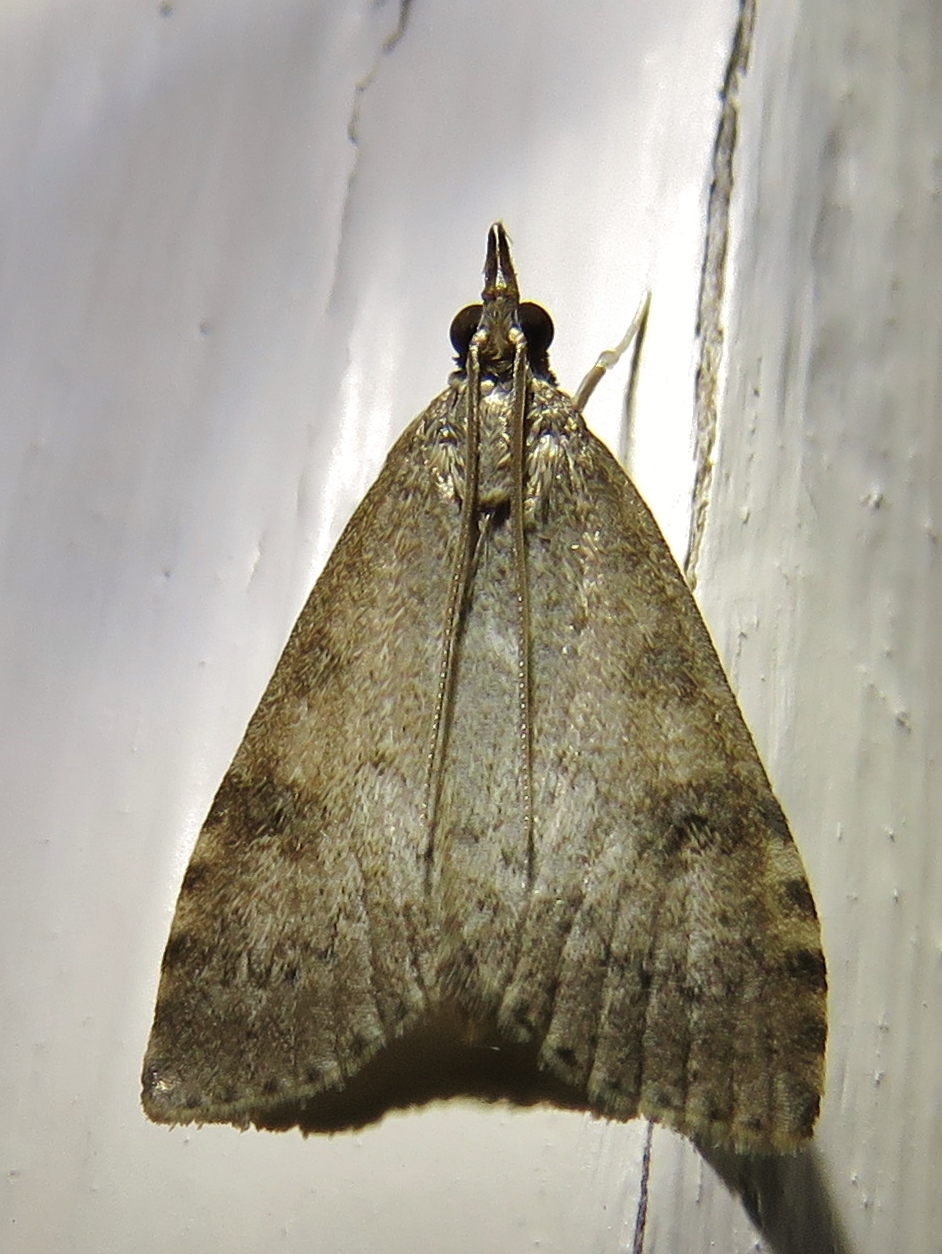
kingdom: Animalia
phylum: Arthropoda
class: Insecta
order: Lepidoptera
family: Crambidae
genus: Udea
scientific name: Udea prunalis
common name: Dusky pearl
